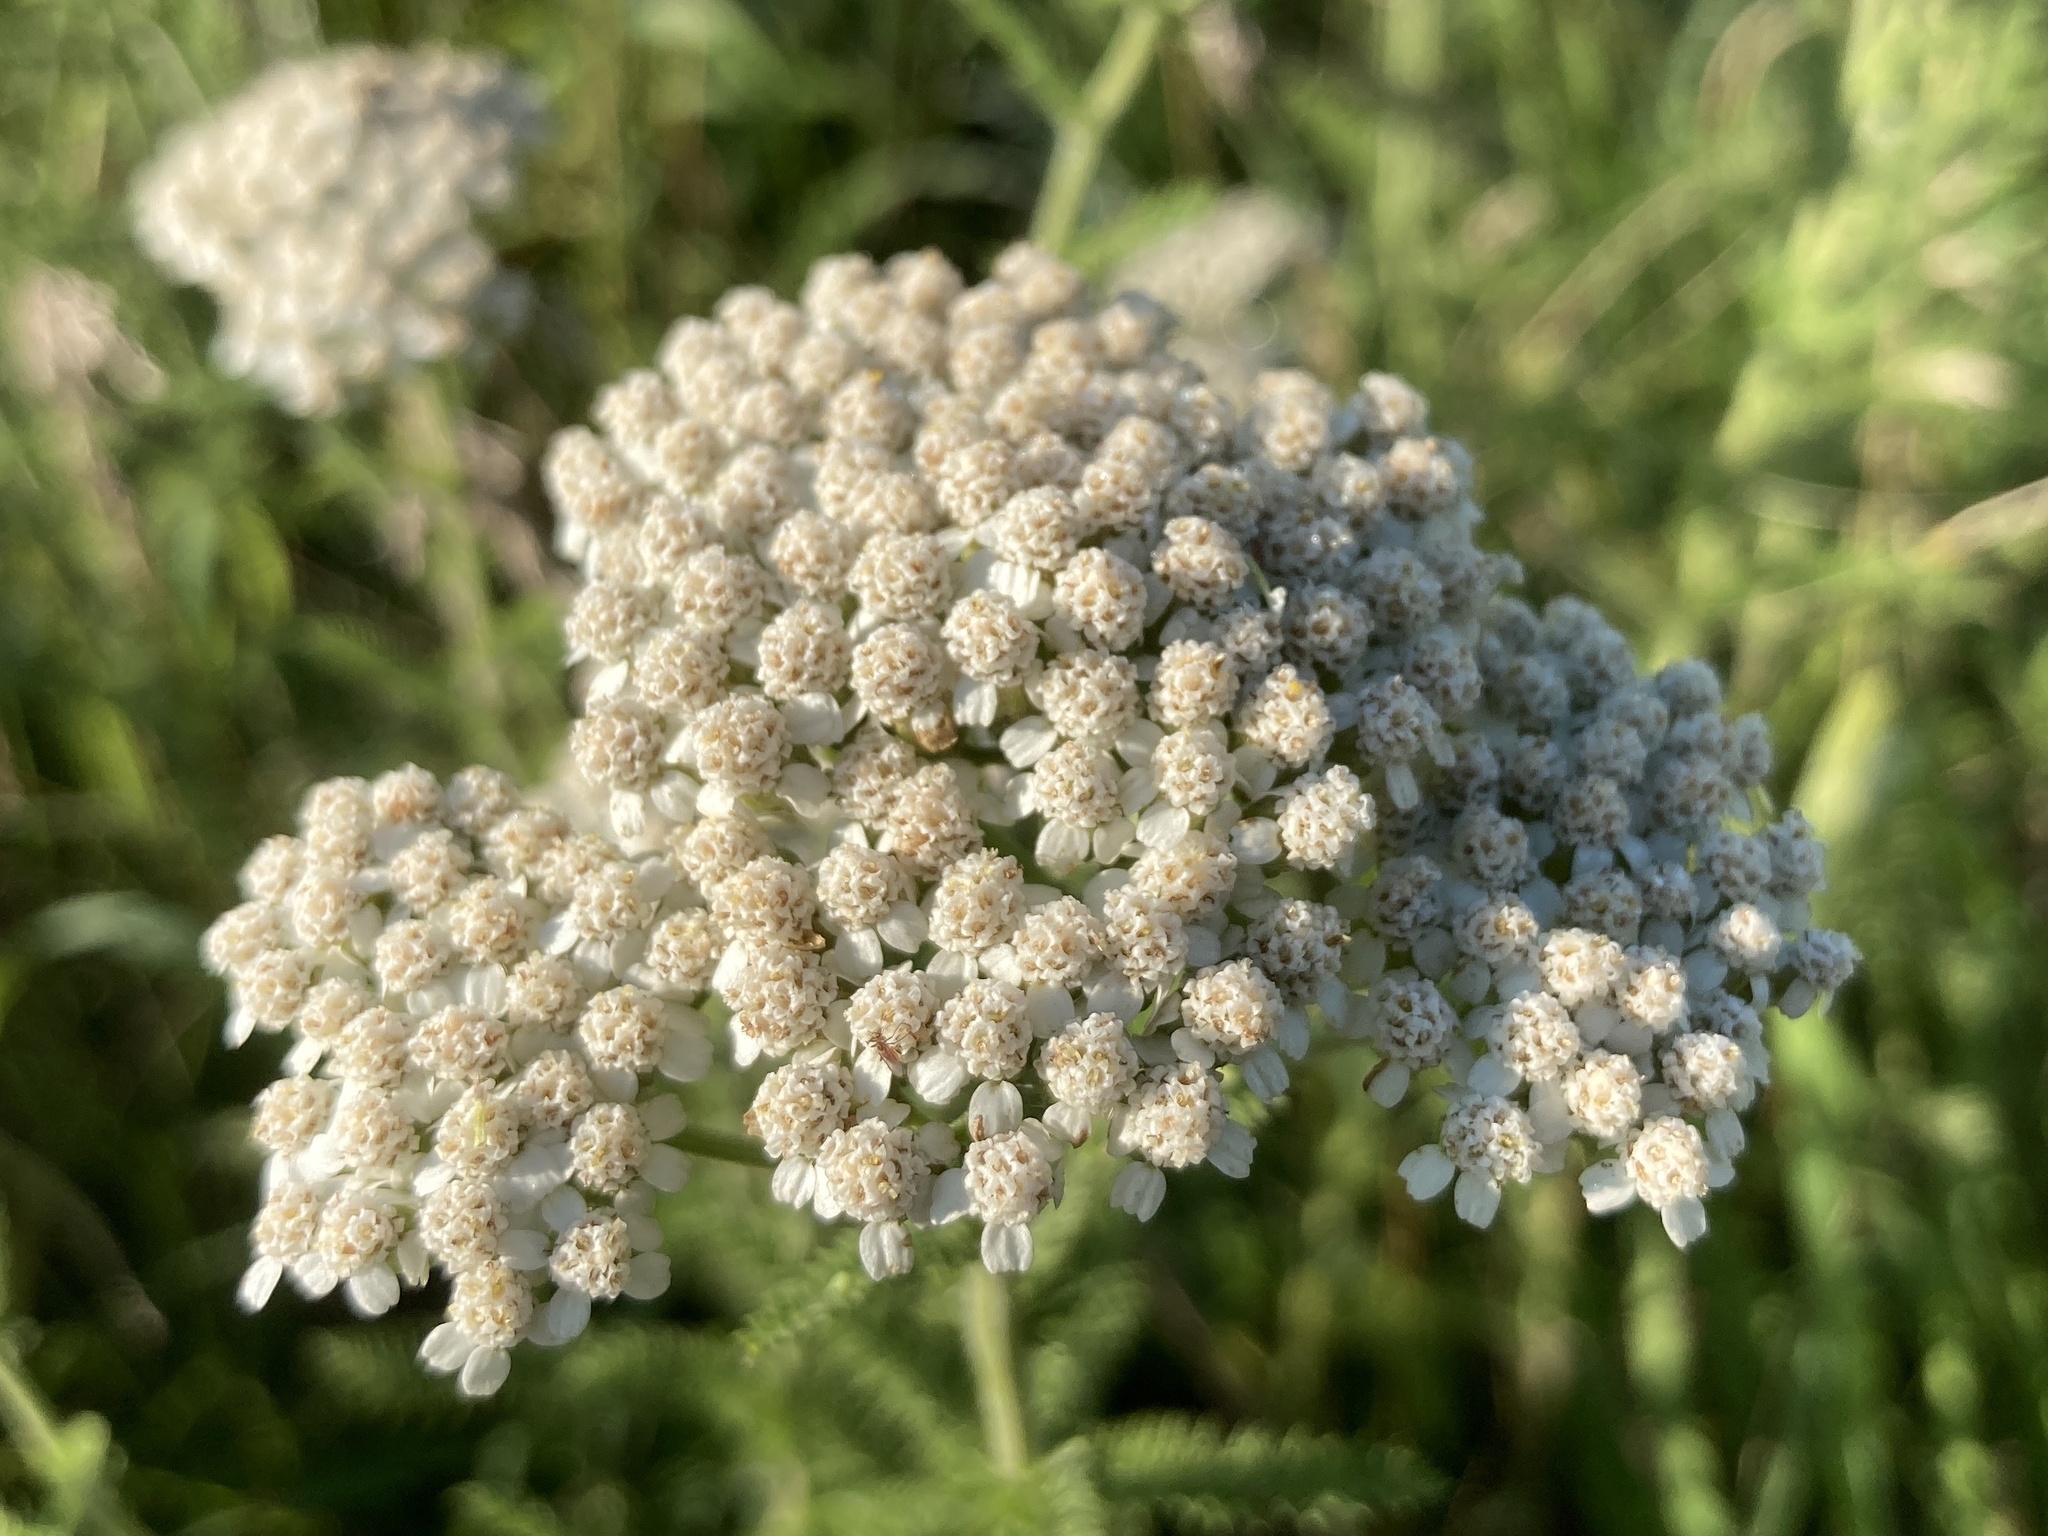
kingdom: Plantae
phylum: Tracheophyta
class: Magnoliopsida
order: Asterales
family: Asteraceae
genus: Achillea
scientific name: Achillea millefolium
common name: Yarrow
